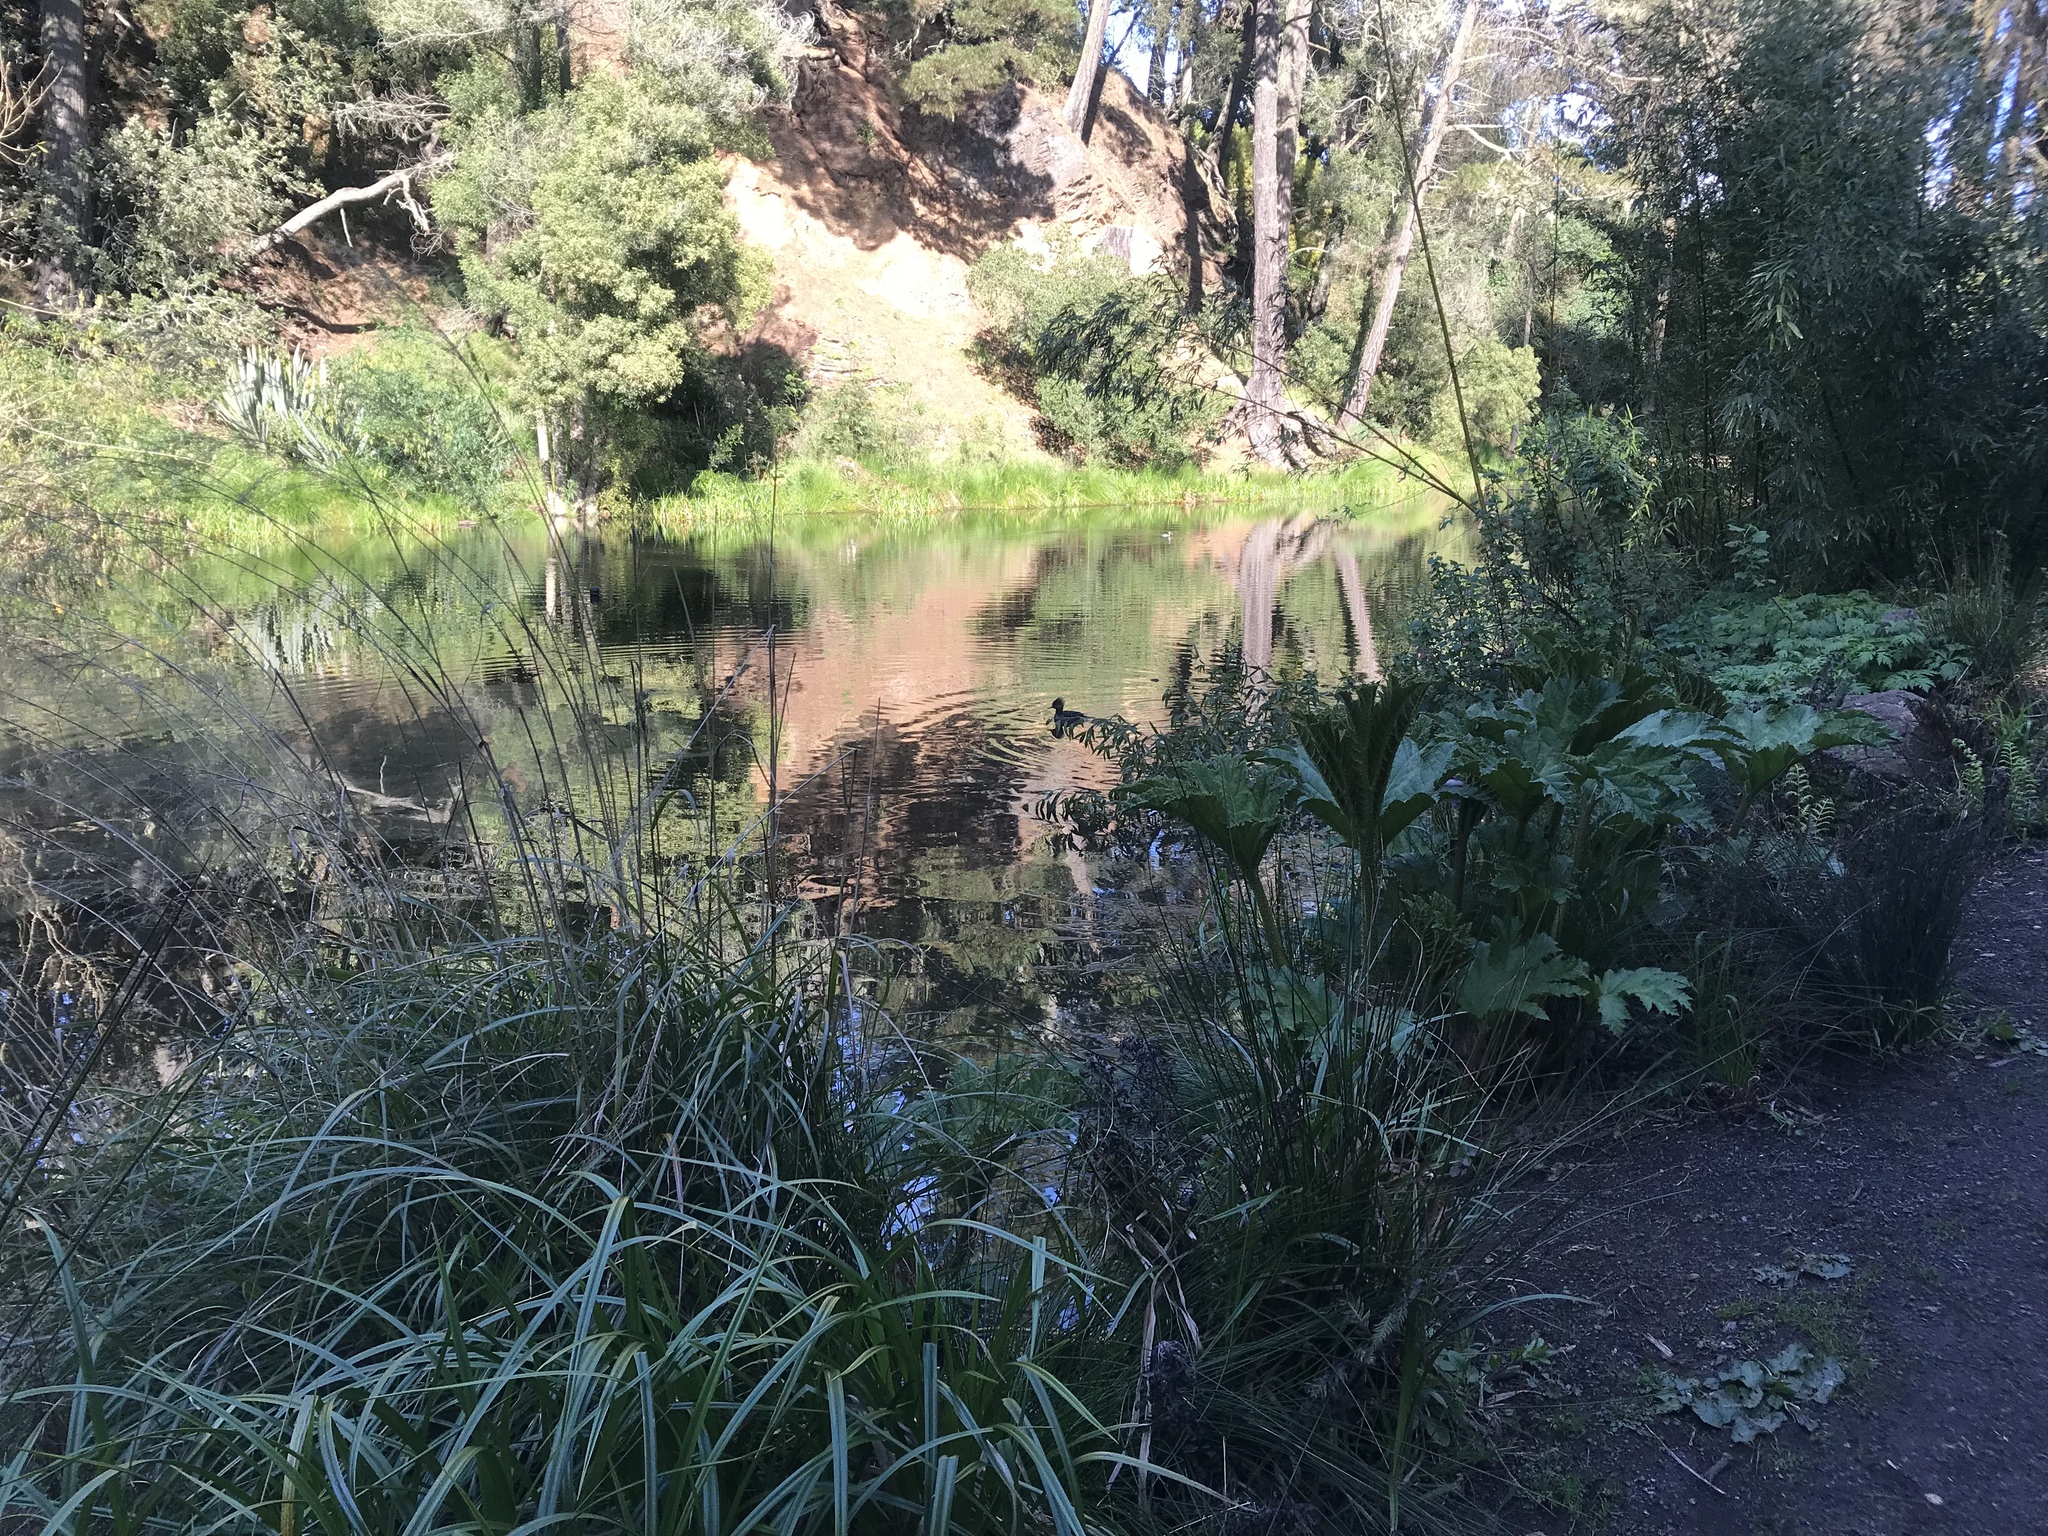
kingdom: Animalia
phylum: Chordata
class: Aves
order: Anseriformes
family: Anatidae
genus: Lophodytes
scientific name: Lophodytes cucullatus
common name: Hooded merganser
